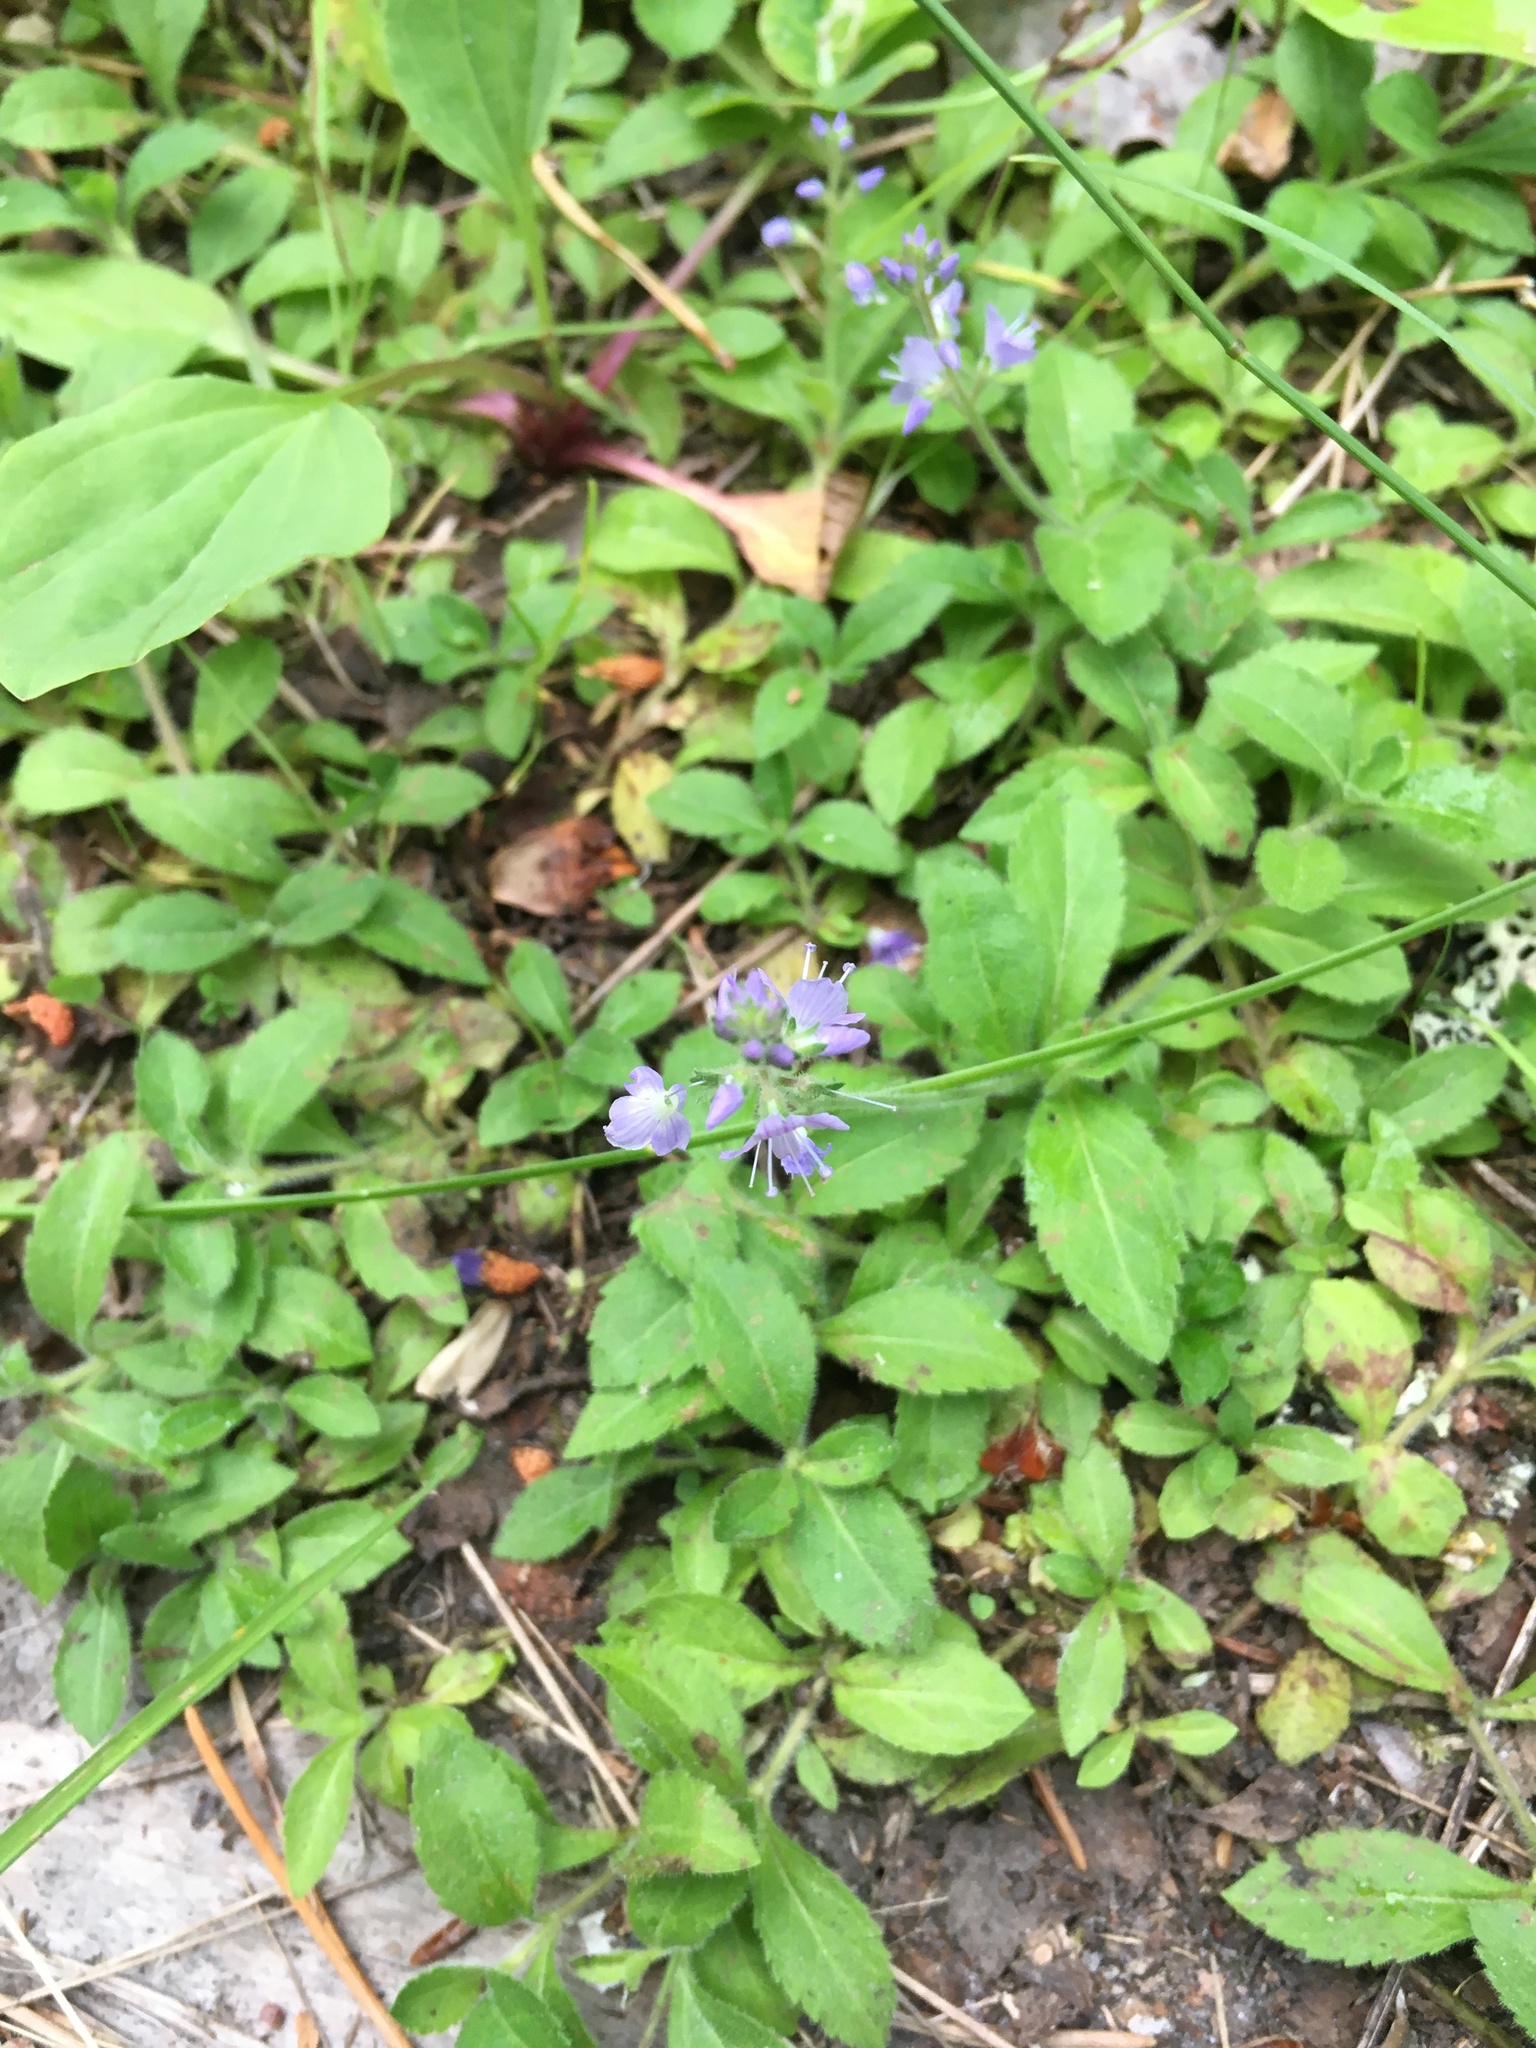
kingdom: Plantae
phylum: Tracheophyta
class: Magnoliopsida
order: Lamiales
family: Plantaginaceae
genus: Veronica
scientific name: Veronica officinalis
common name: Common speedwell
